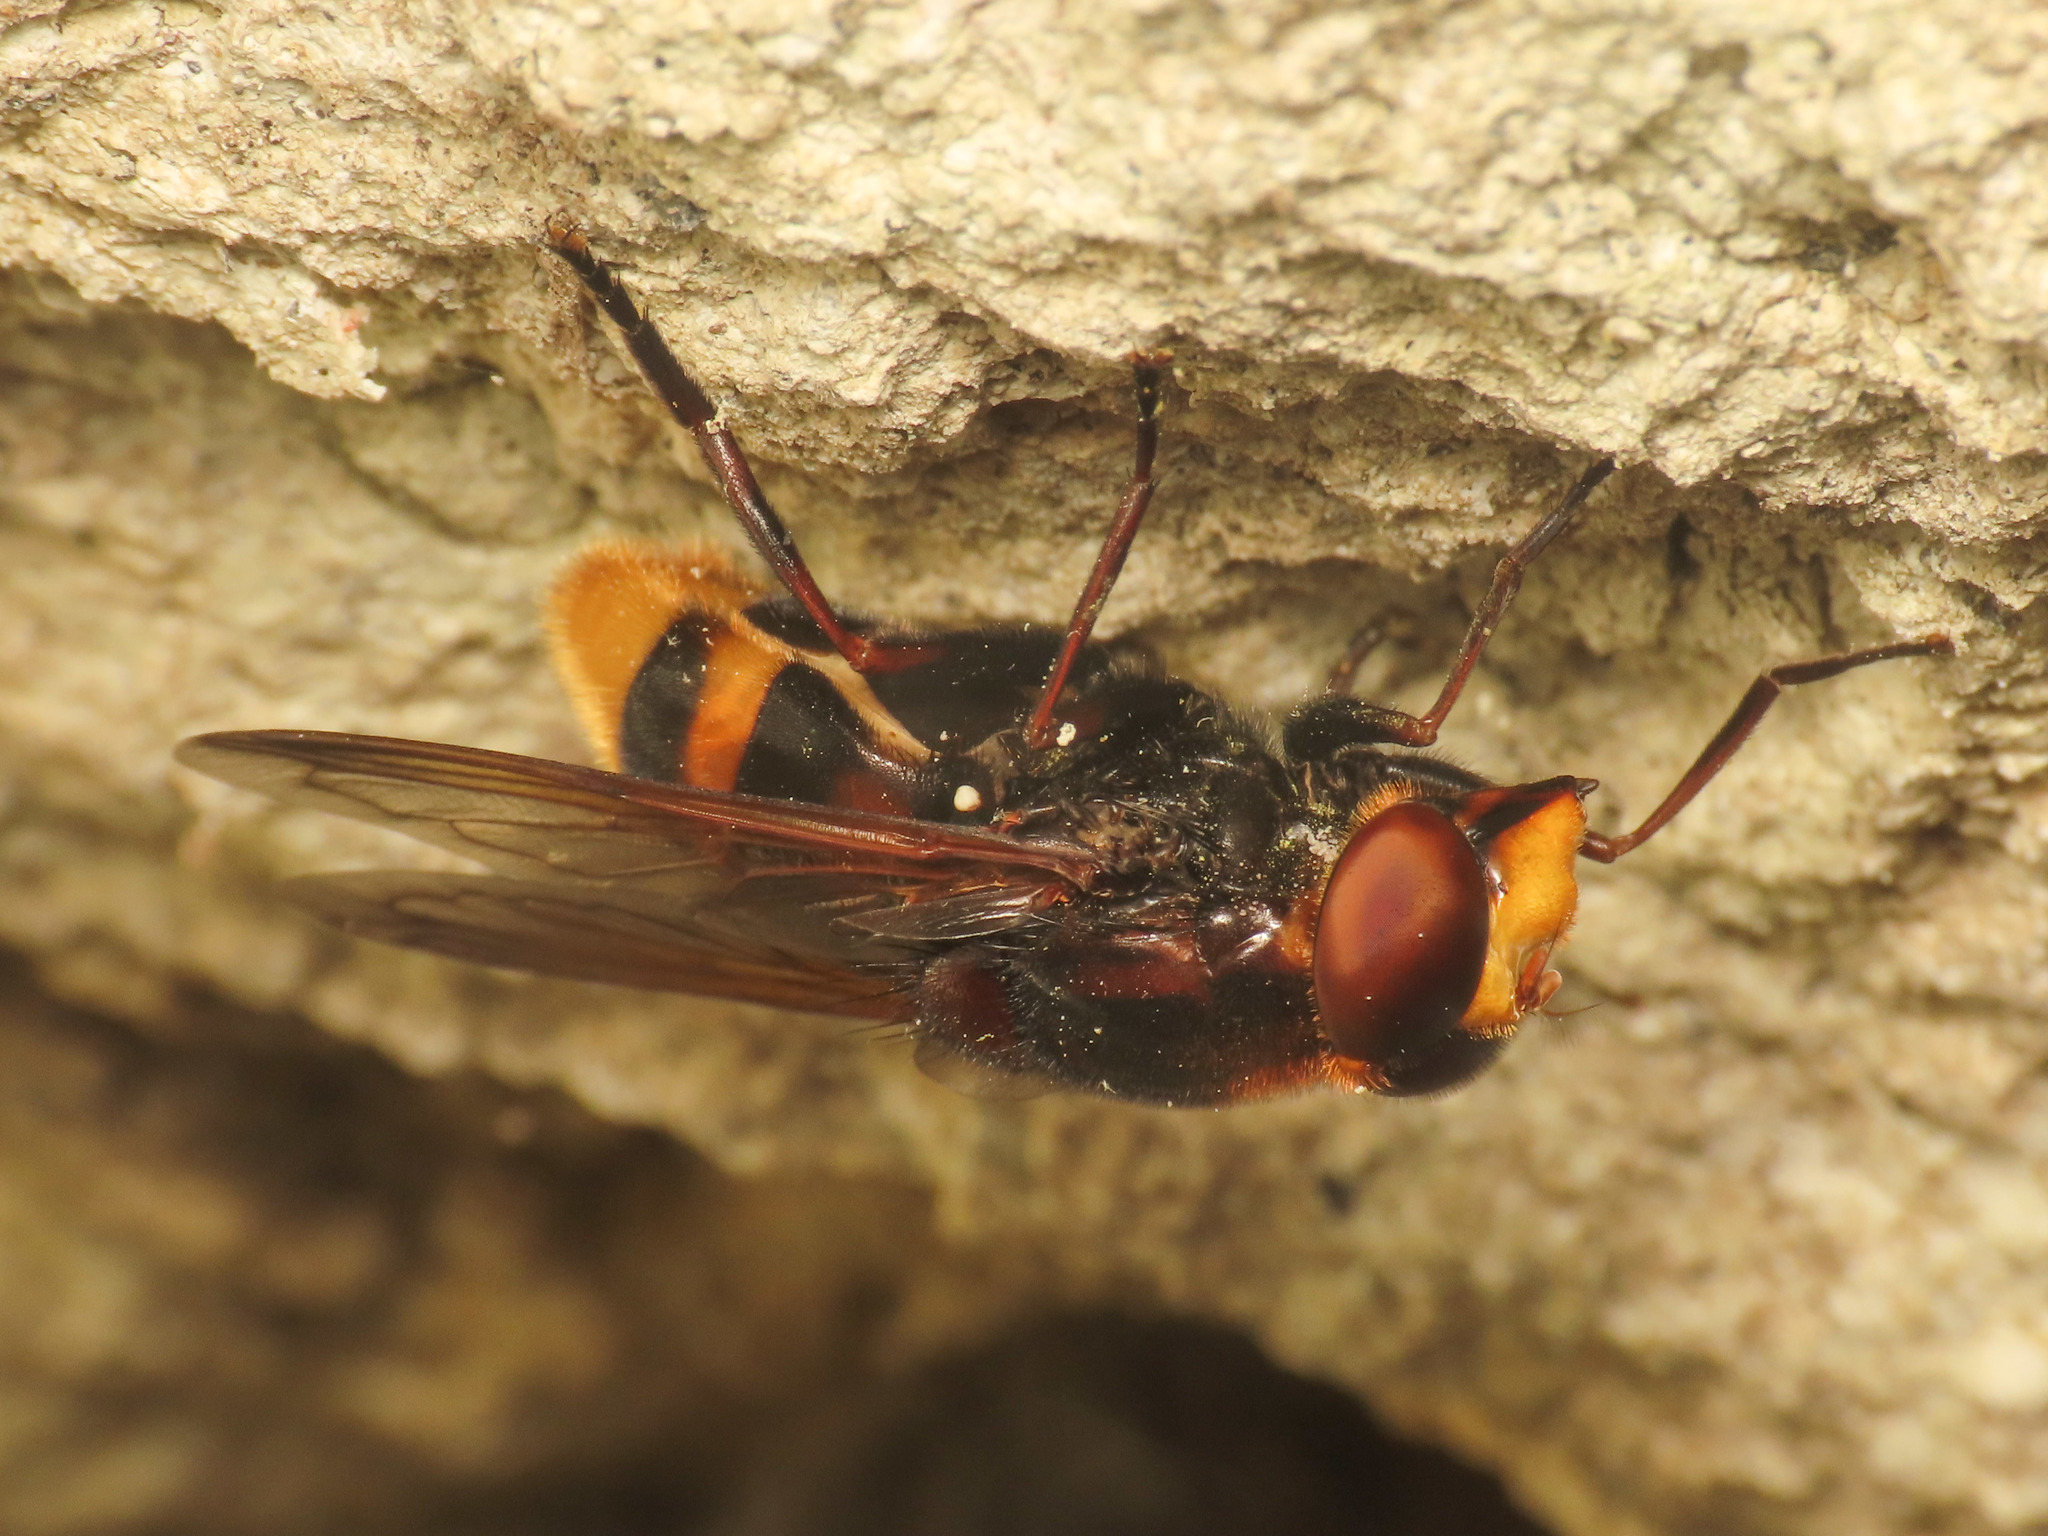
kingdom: Animalia
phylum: Arthropoda
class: Insecta
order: Diptera
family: Syrphidae
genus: Volucella
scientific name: Volucella zonaria
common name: Hornet hoverfly
